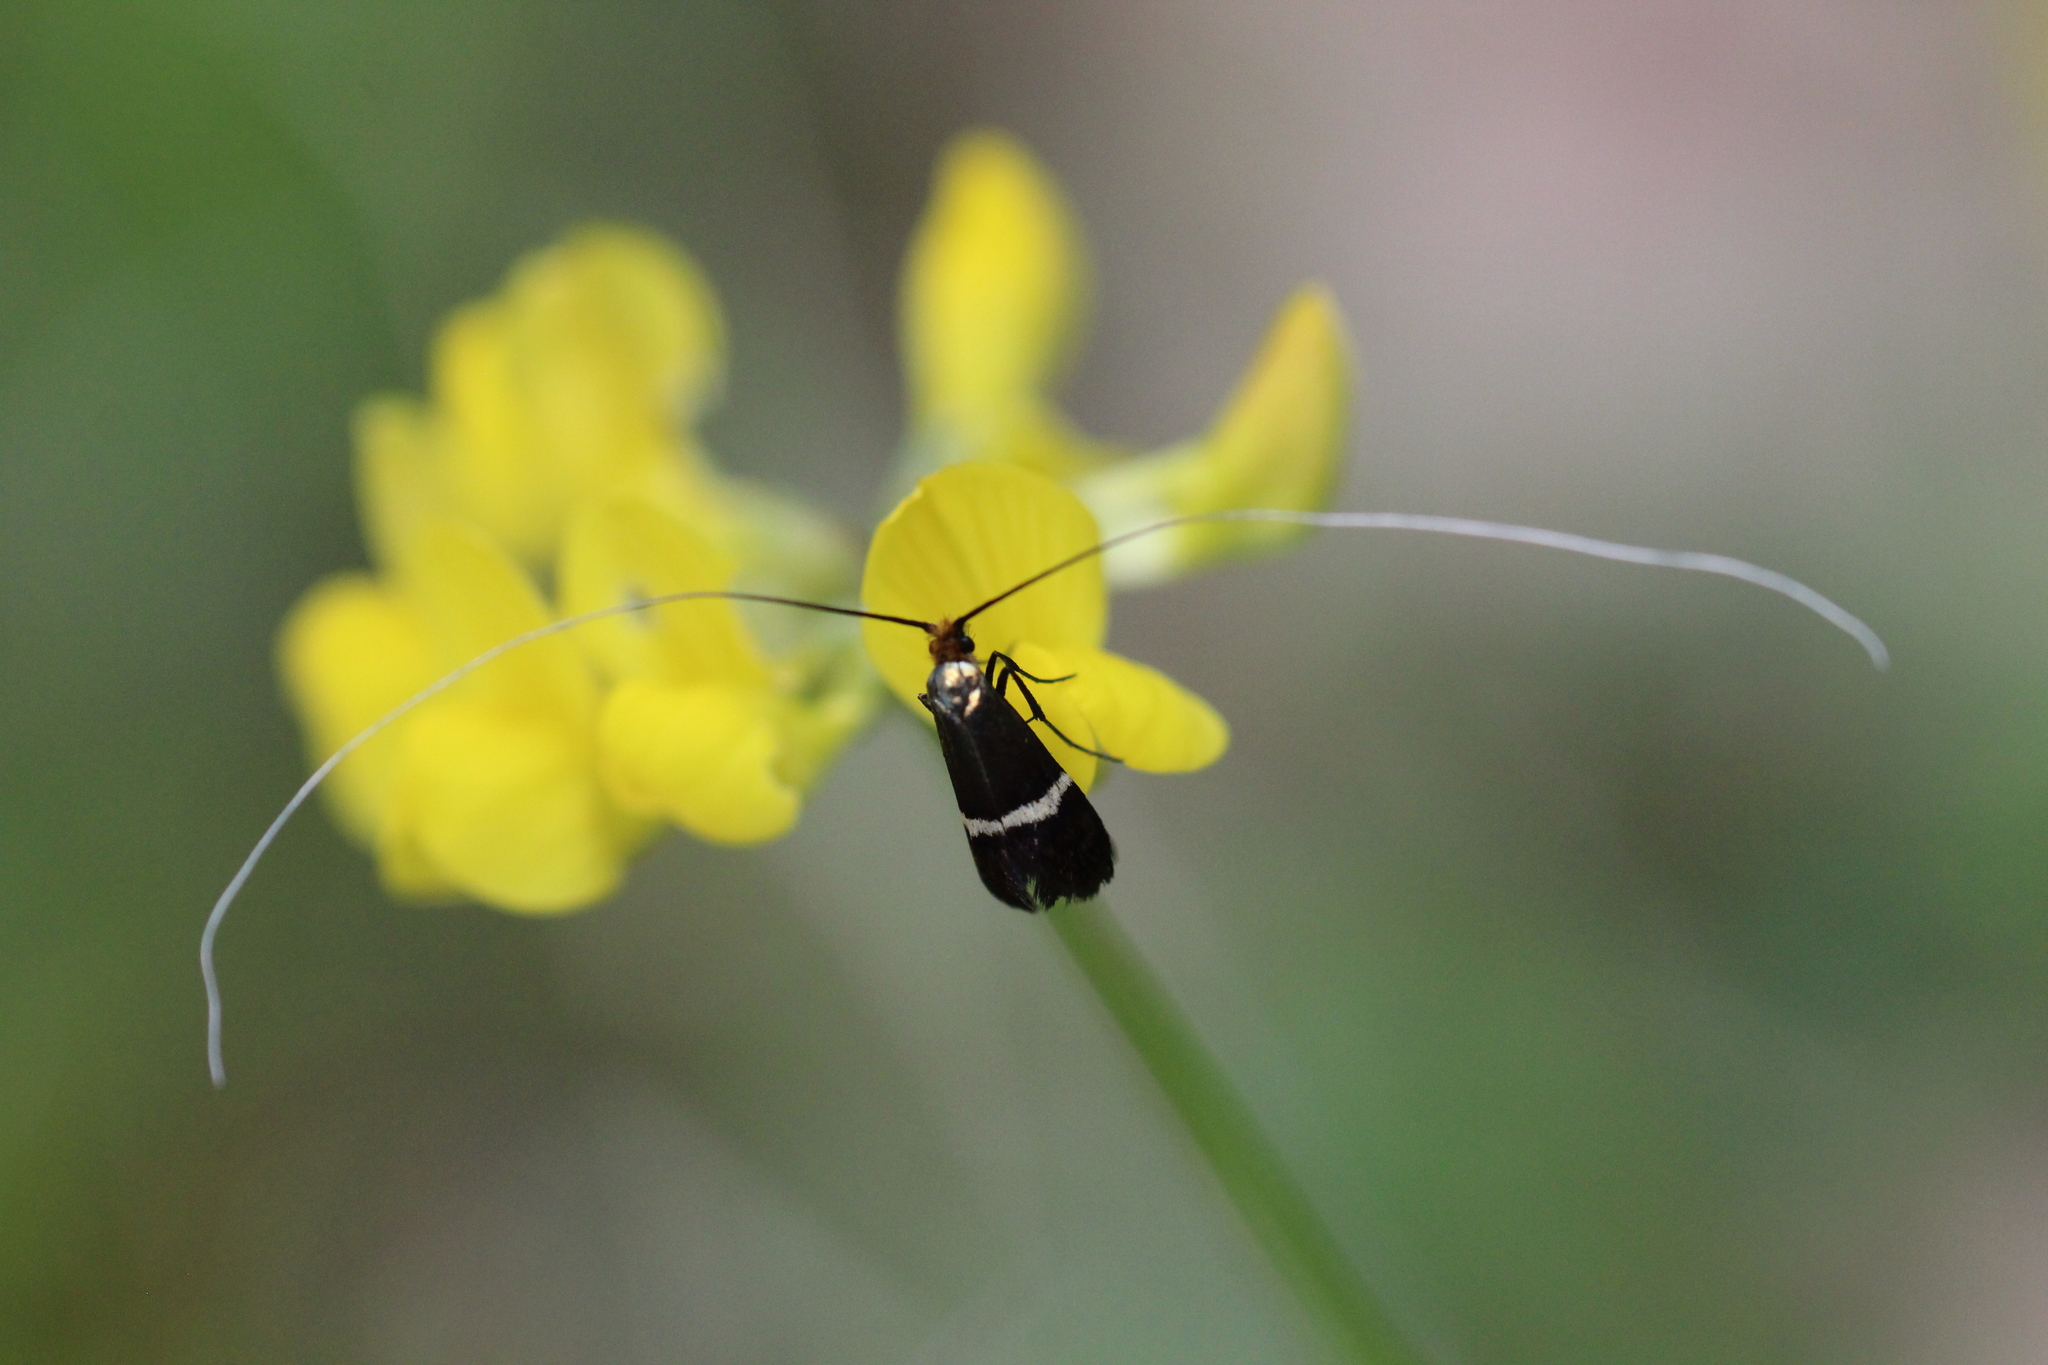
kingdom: Animalia
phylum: Arthropoda
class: Insecta
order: Lepidoptera
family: Adelidae
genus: Adela
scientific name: Adela australis
